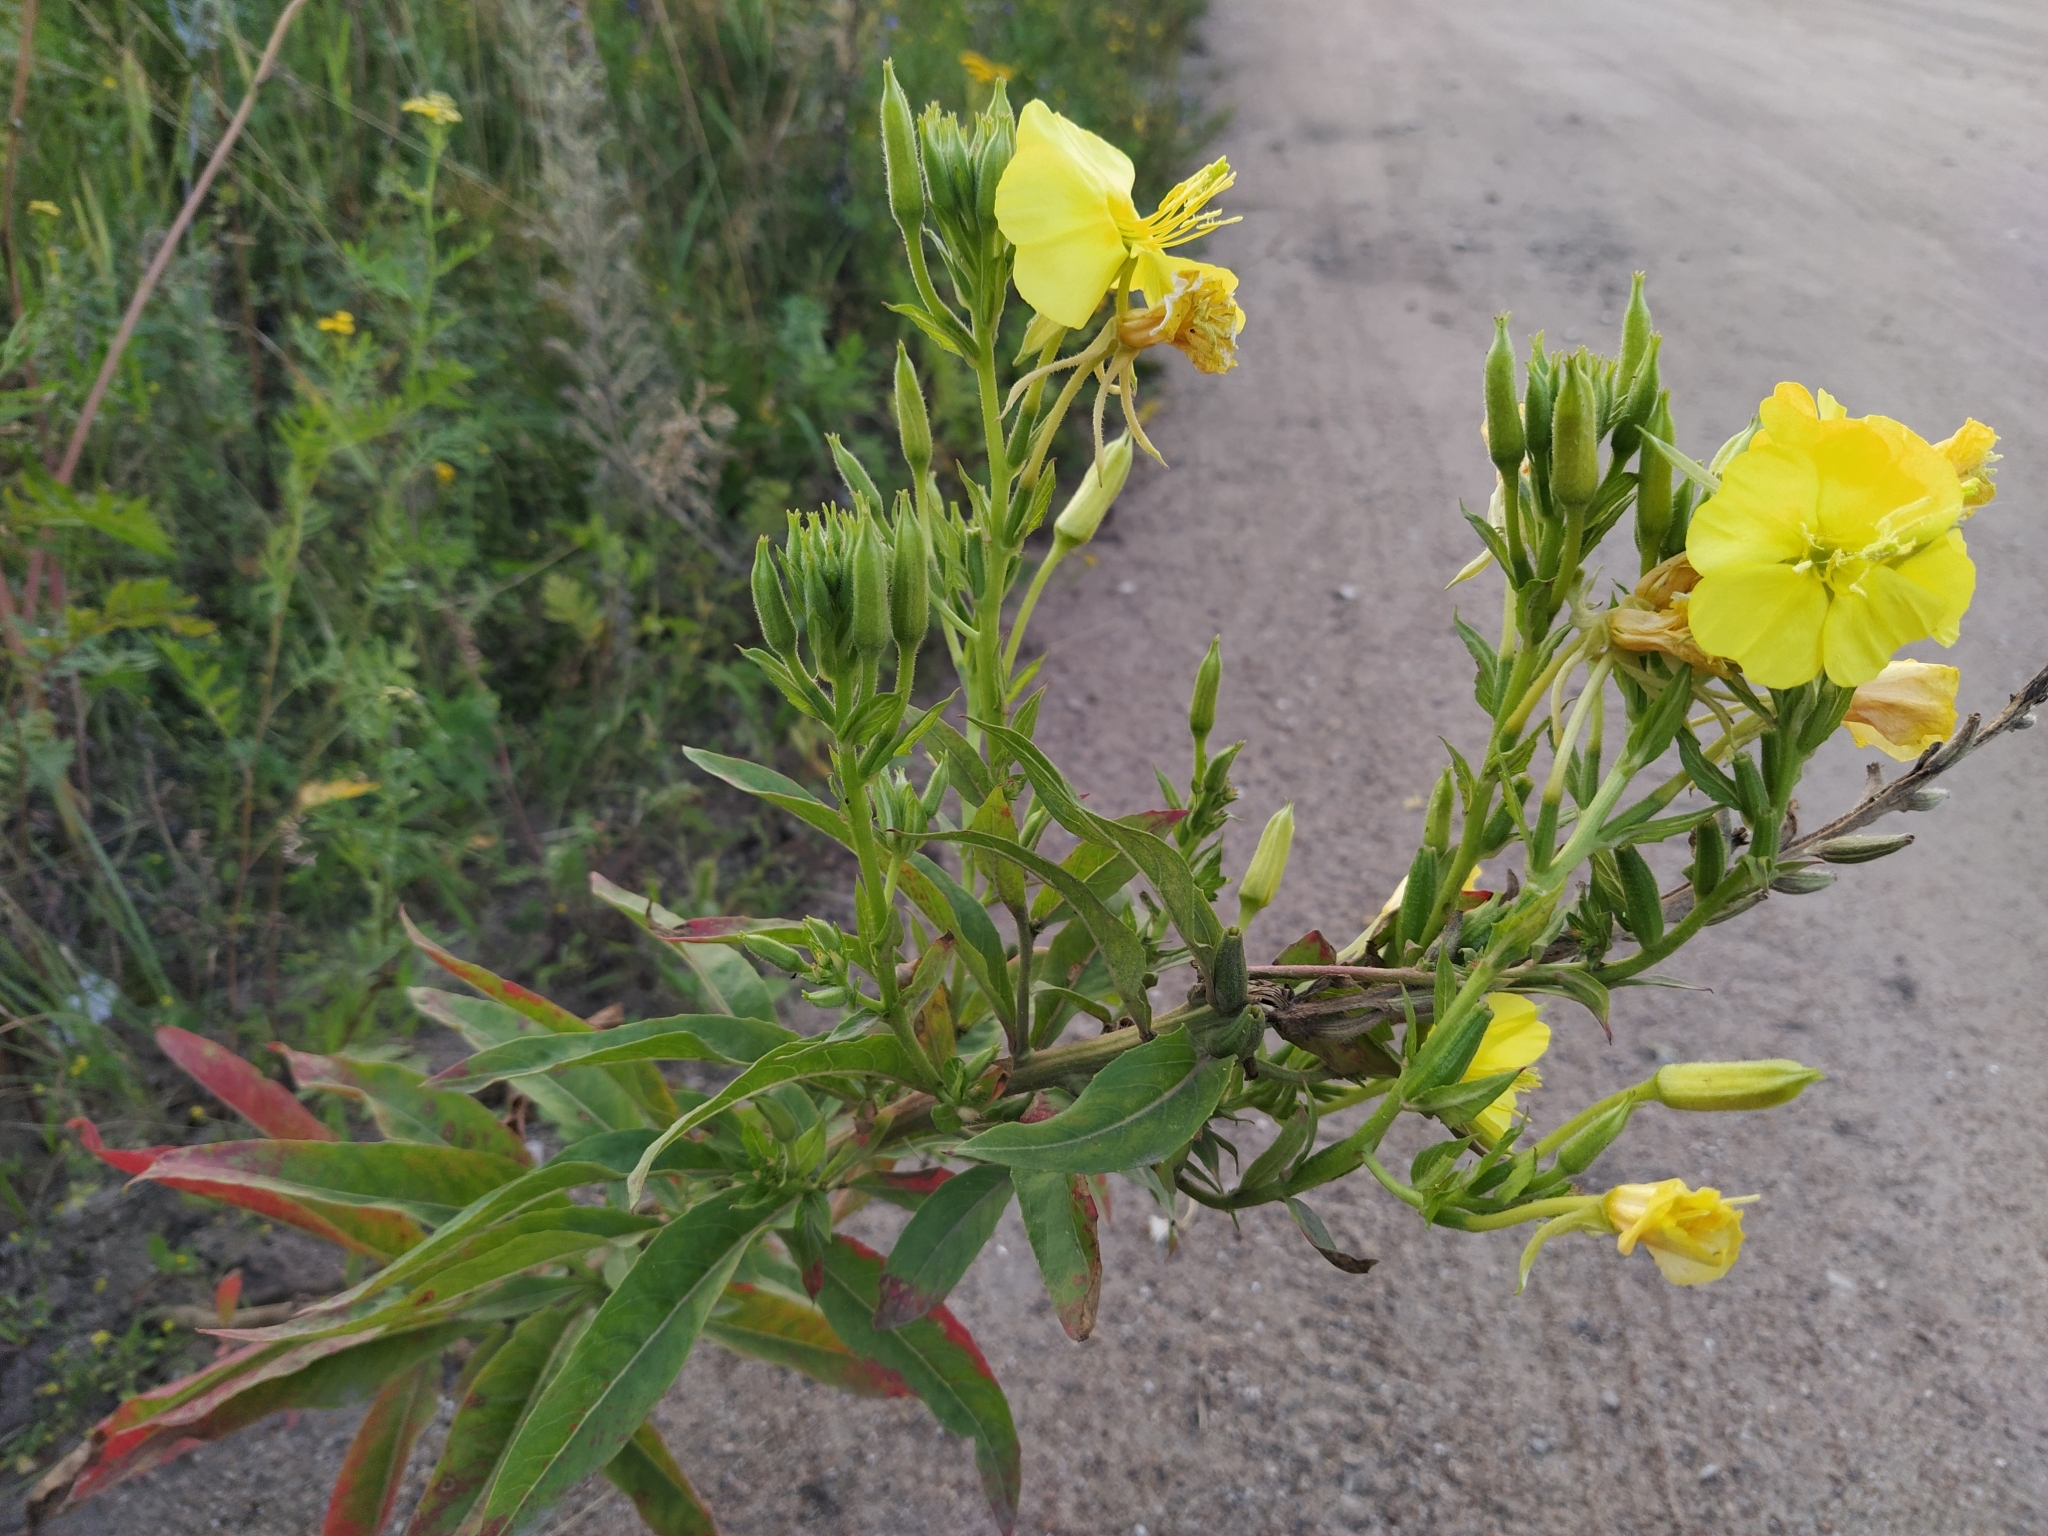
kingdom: Plantae
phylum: Tracheophyta
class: Magnoliopsida
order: Myrtales
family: Onagraceae
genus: Oenothera
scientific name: Oenothera biennis
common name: Common evening-primrose
